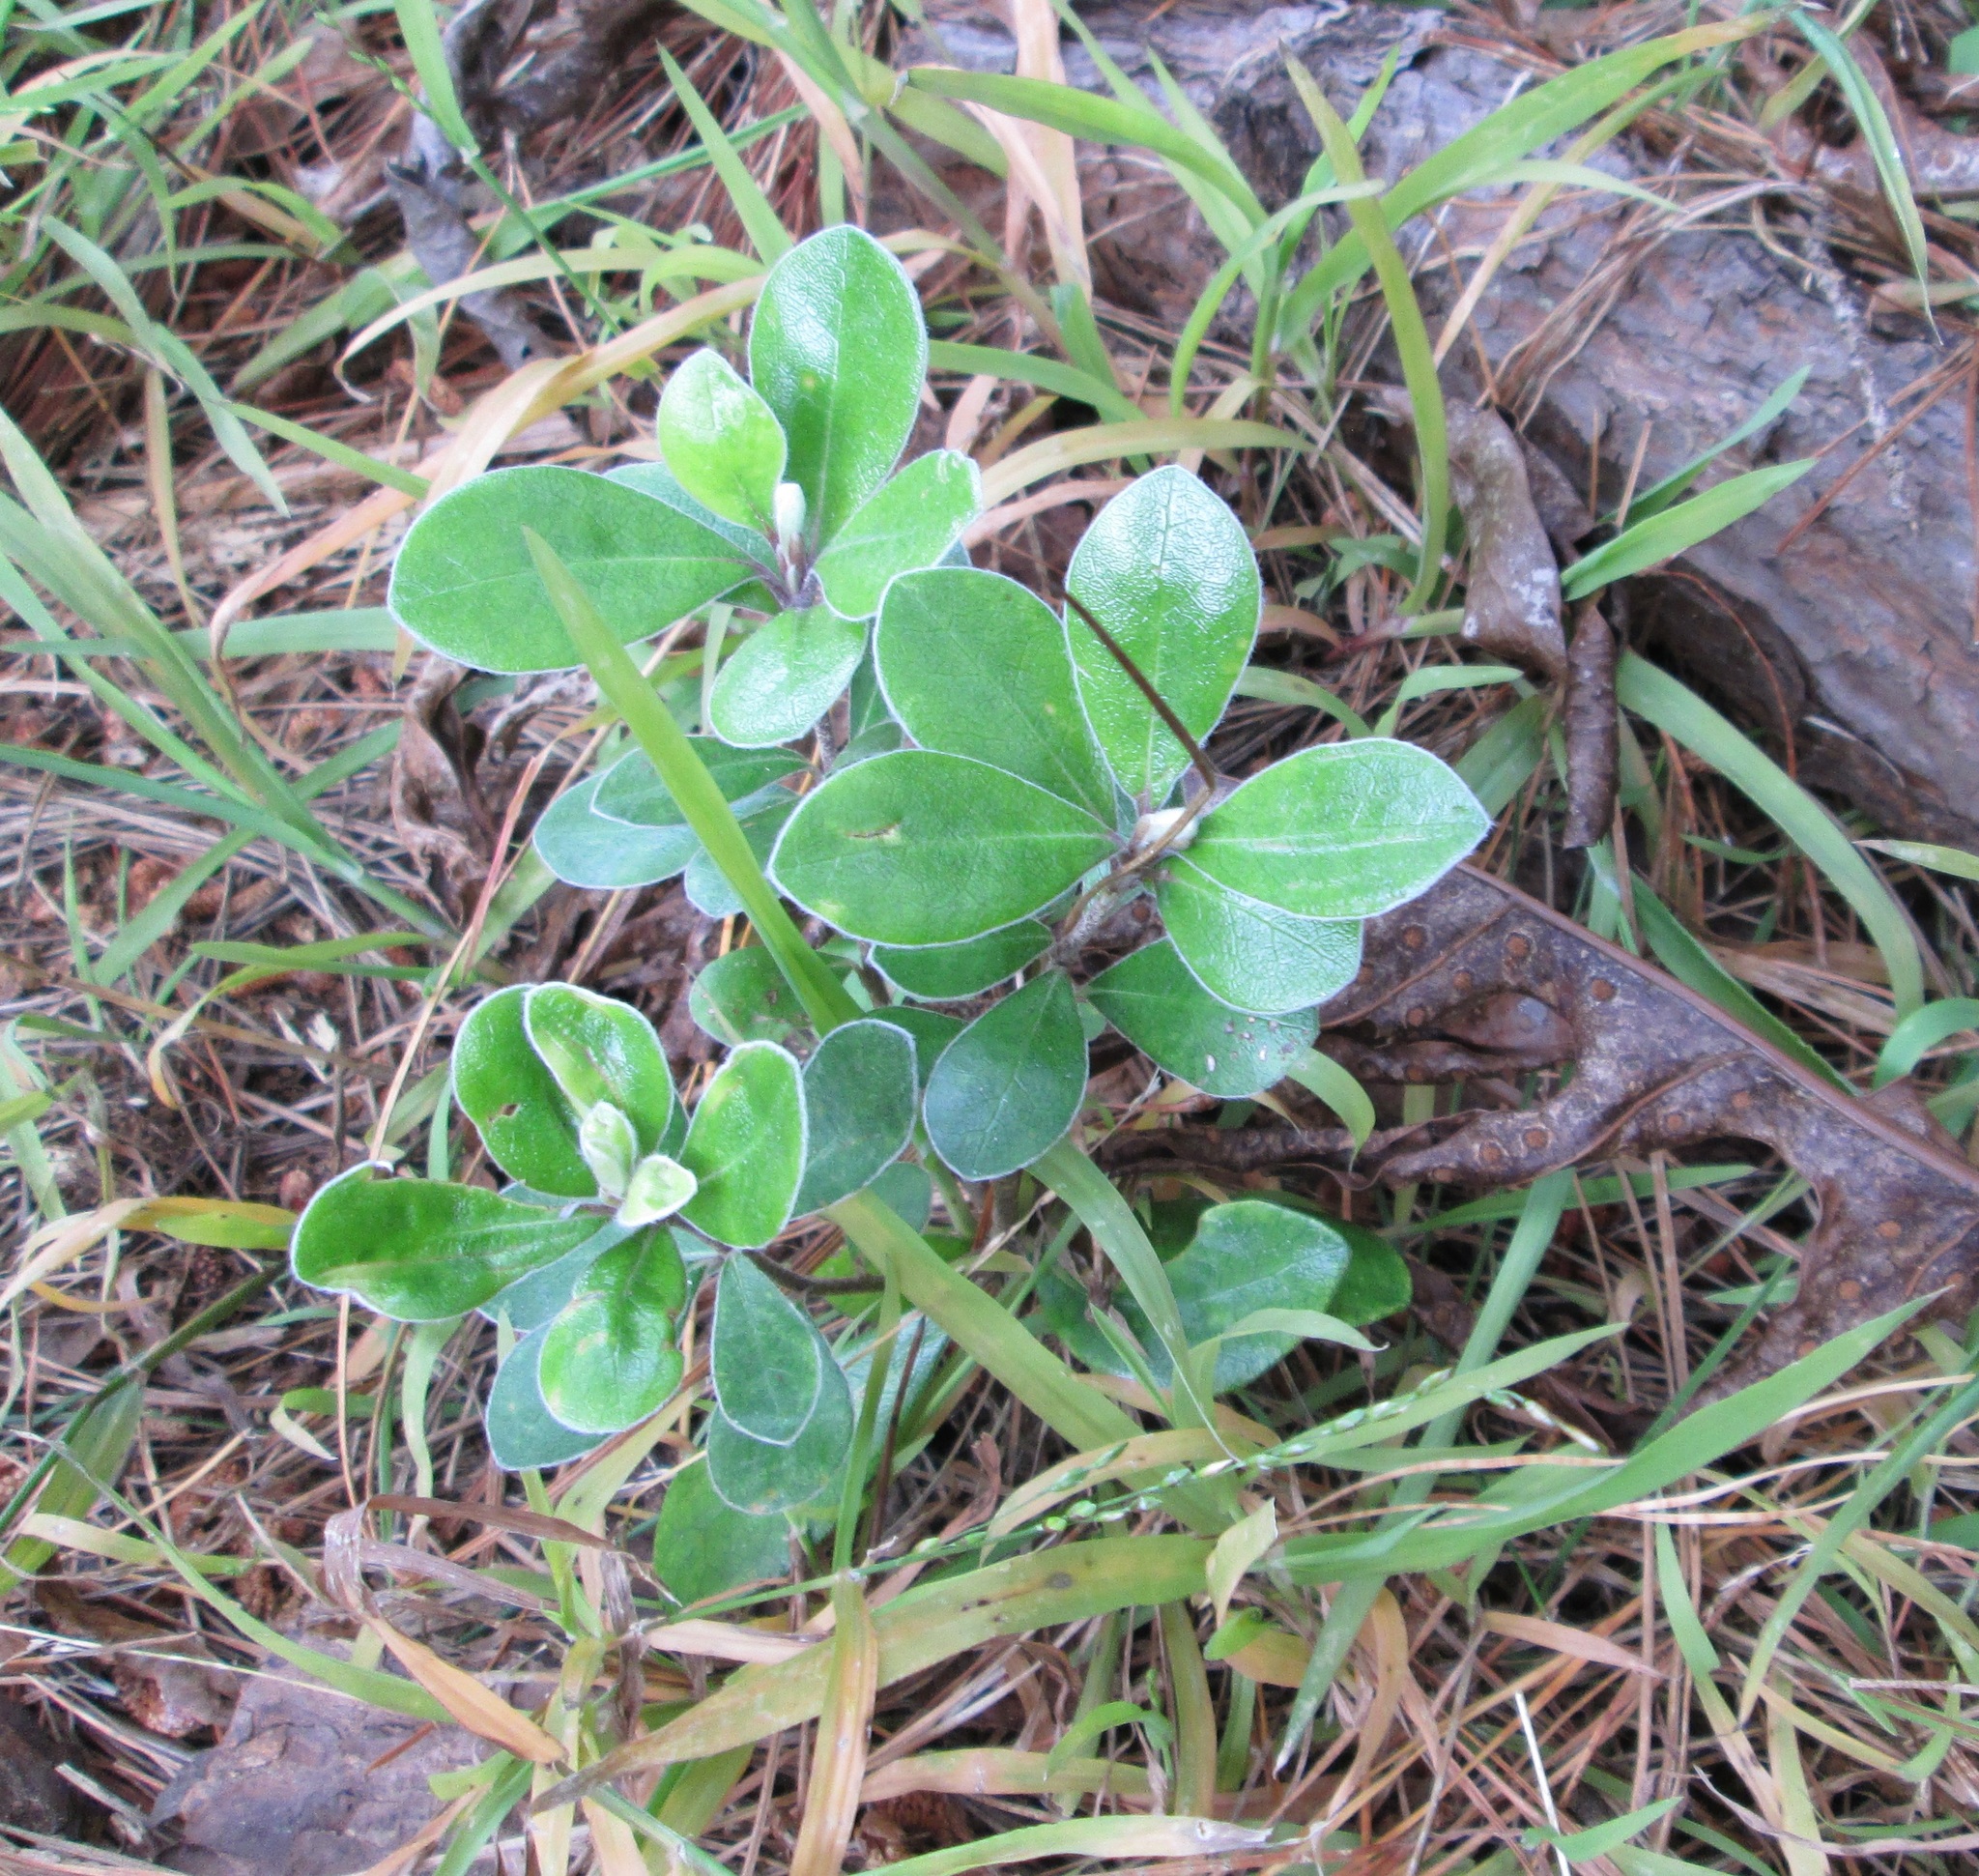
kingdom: Plantae
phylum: Tracheophyta
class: Magnoliopsida
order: Apiales
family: Pittosporaceae
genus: Pittosporum
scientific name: Pittosporum crassifolium
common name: Karo
